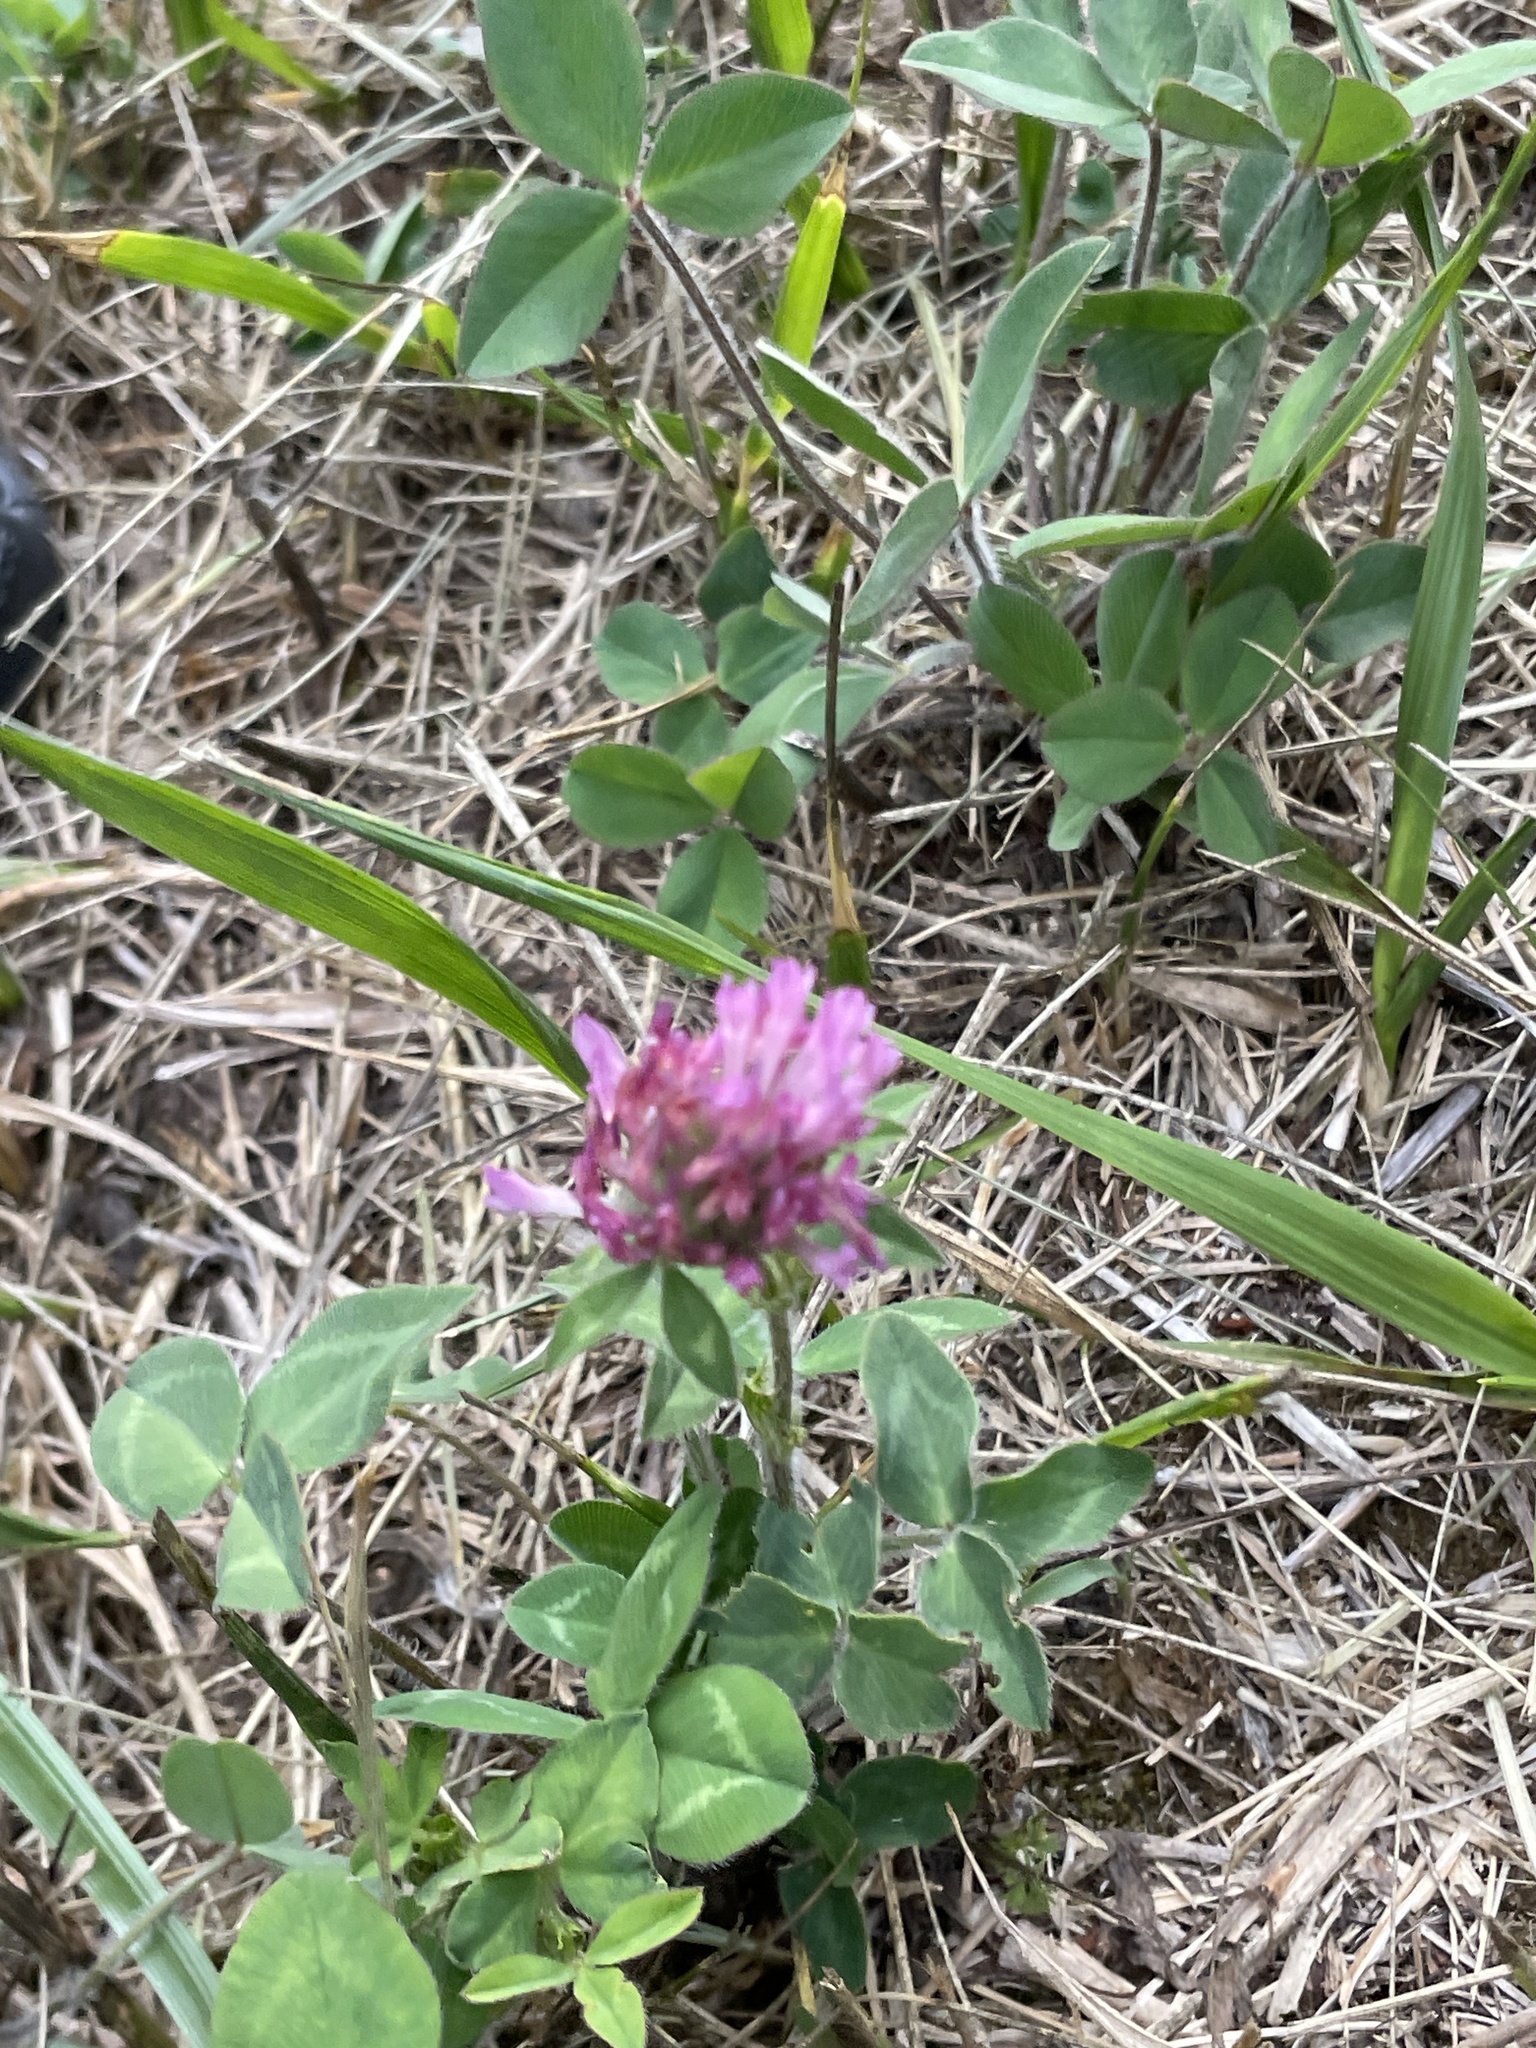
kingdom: Plantae
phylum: Tracheophyta
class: Magnoliopsida
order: Fabales
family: Fabaceae
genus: Trifolium
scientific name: Trifolium pratense
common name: Red clover
